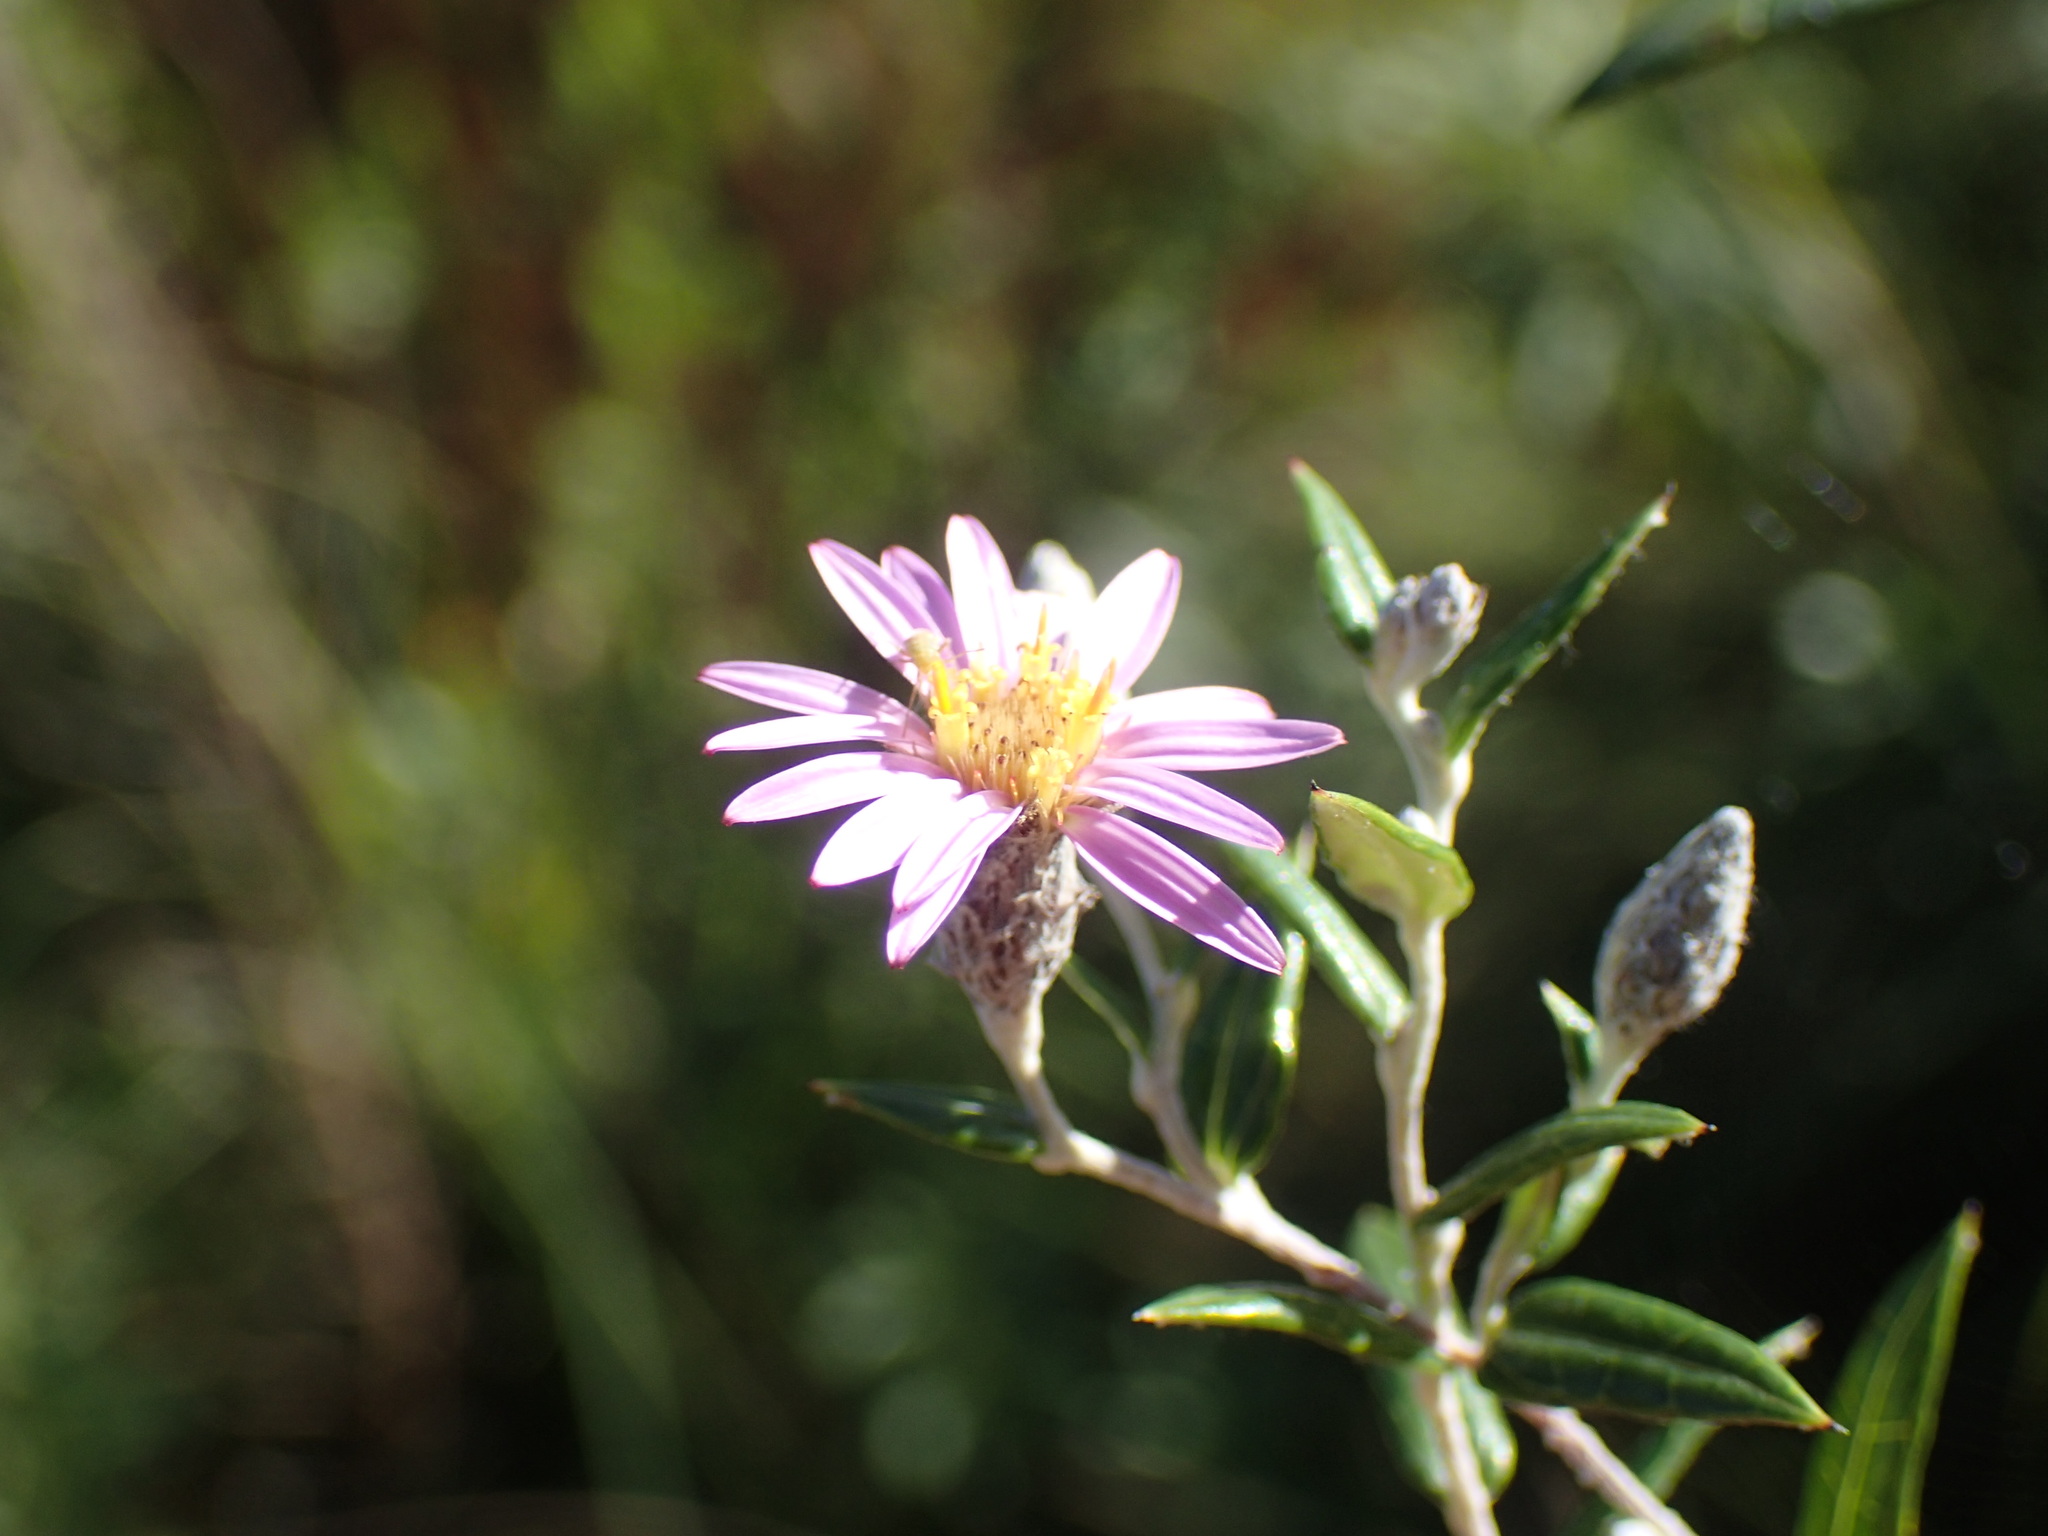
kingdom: Plantae
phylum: Tracheophyta
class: Magnoliopsida
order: Asterales
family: Asteraceae
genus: Athrixia
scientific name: Athrixia phylicoides
